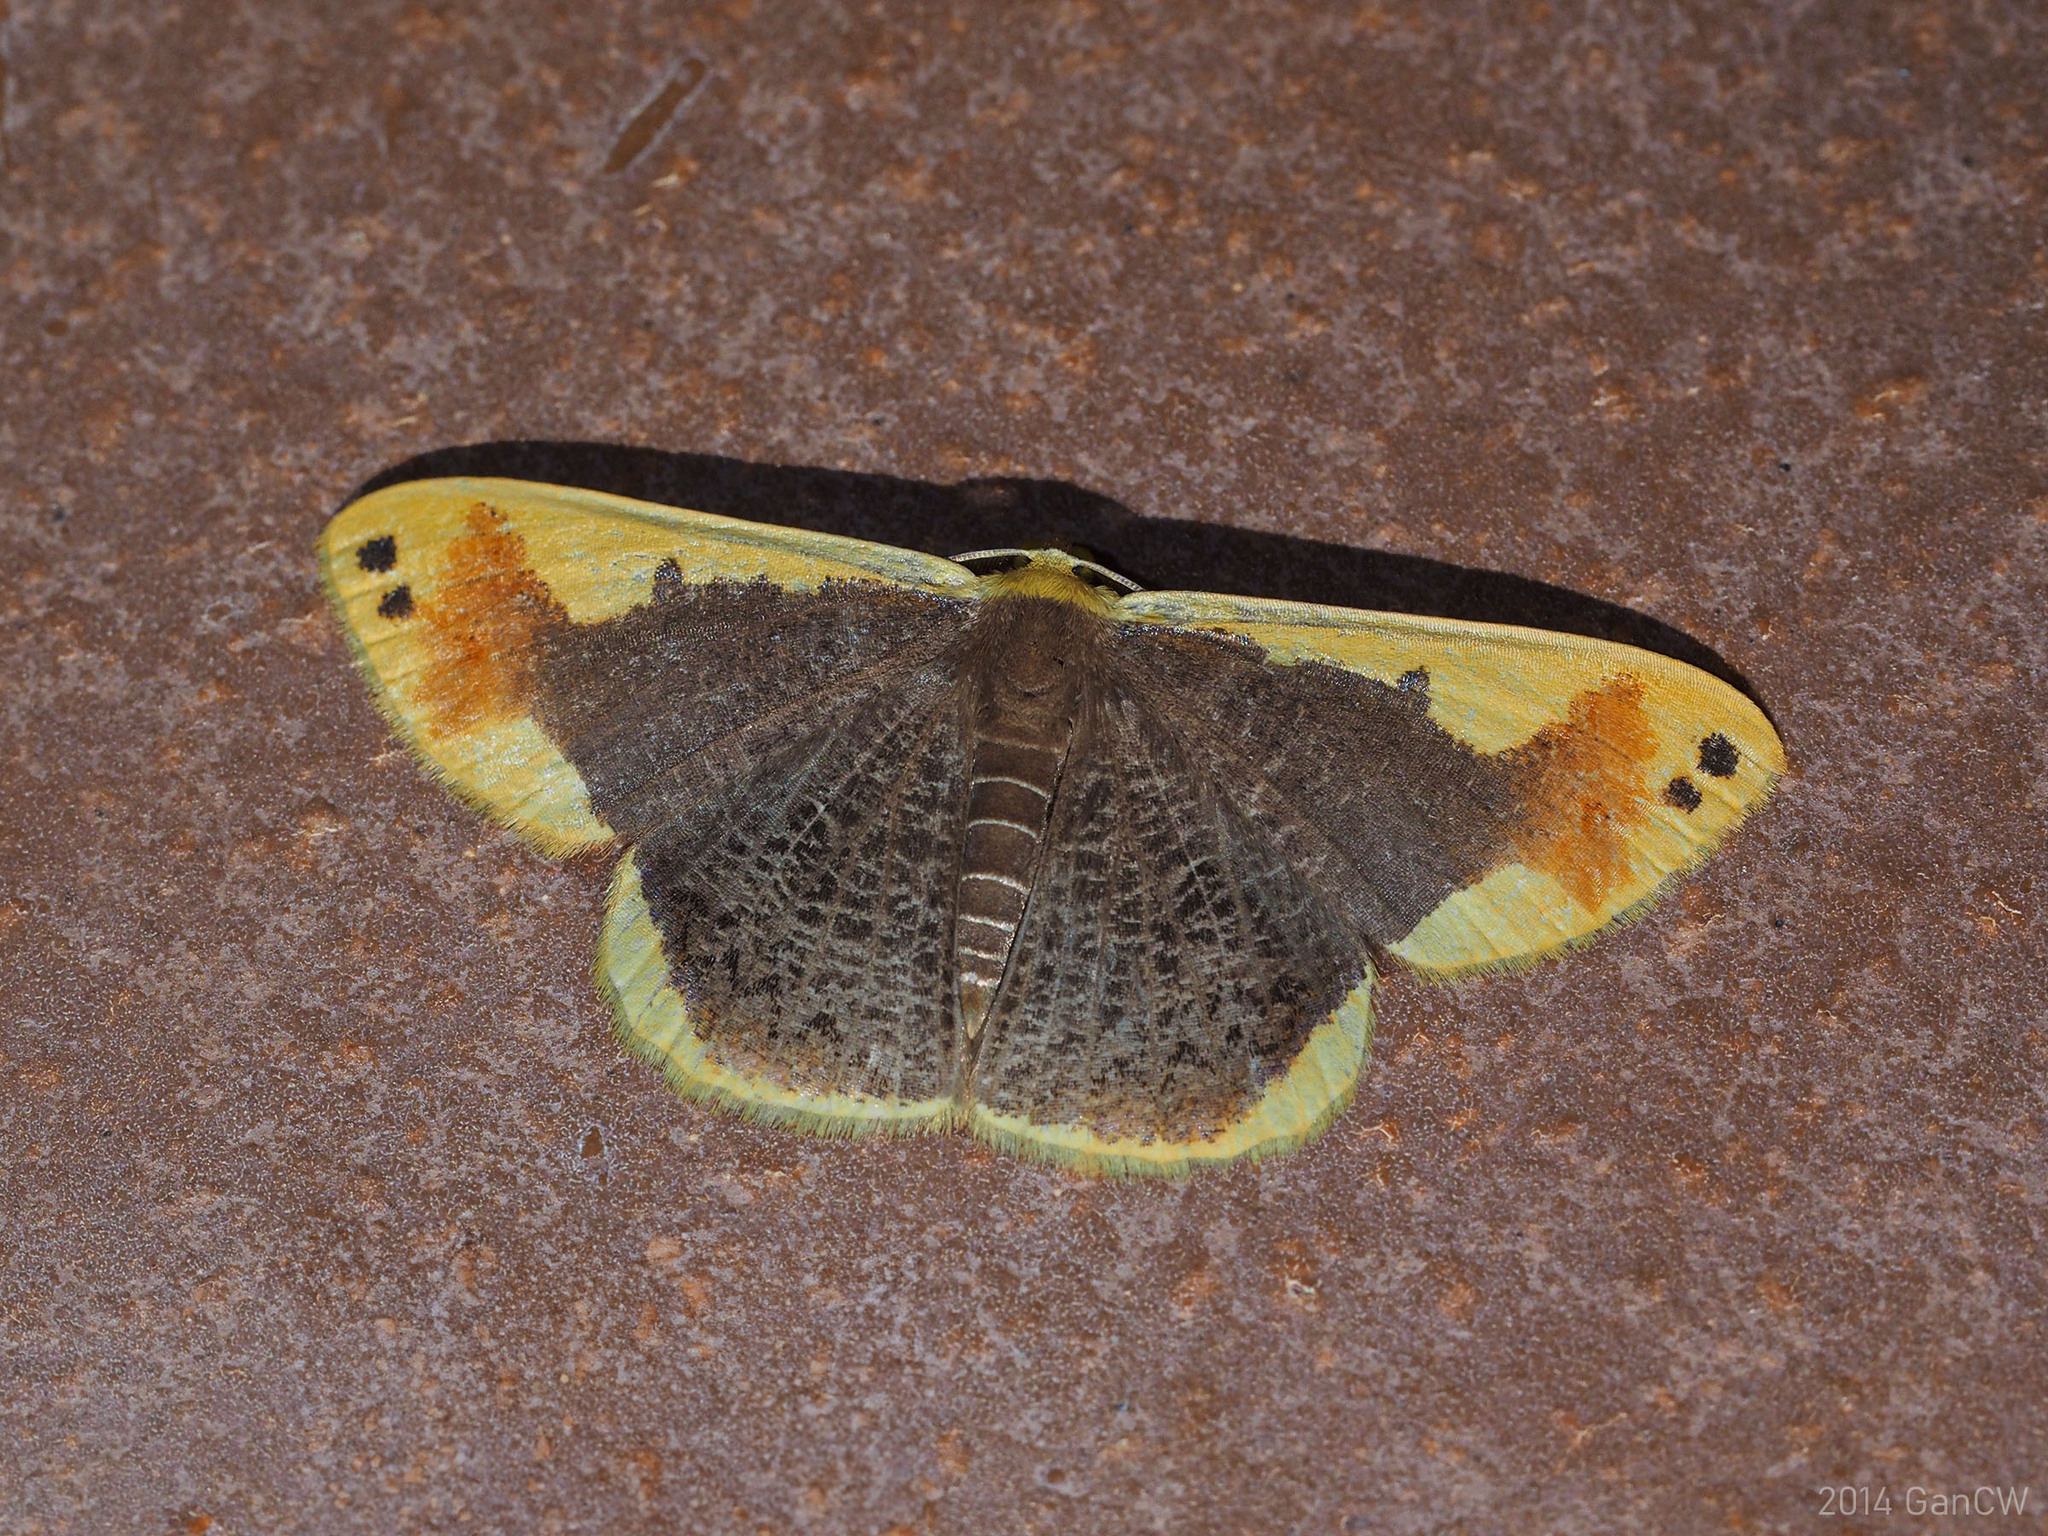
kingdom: Animalia
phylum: Arthropoda
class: Insecta
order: Lepidoptera
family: Geometridae
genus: Plutodes
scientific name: Plutodes moultoni
